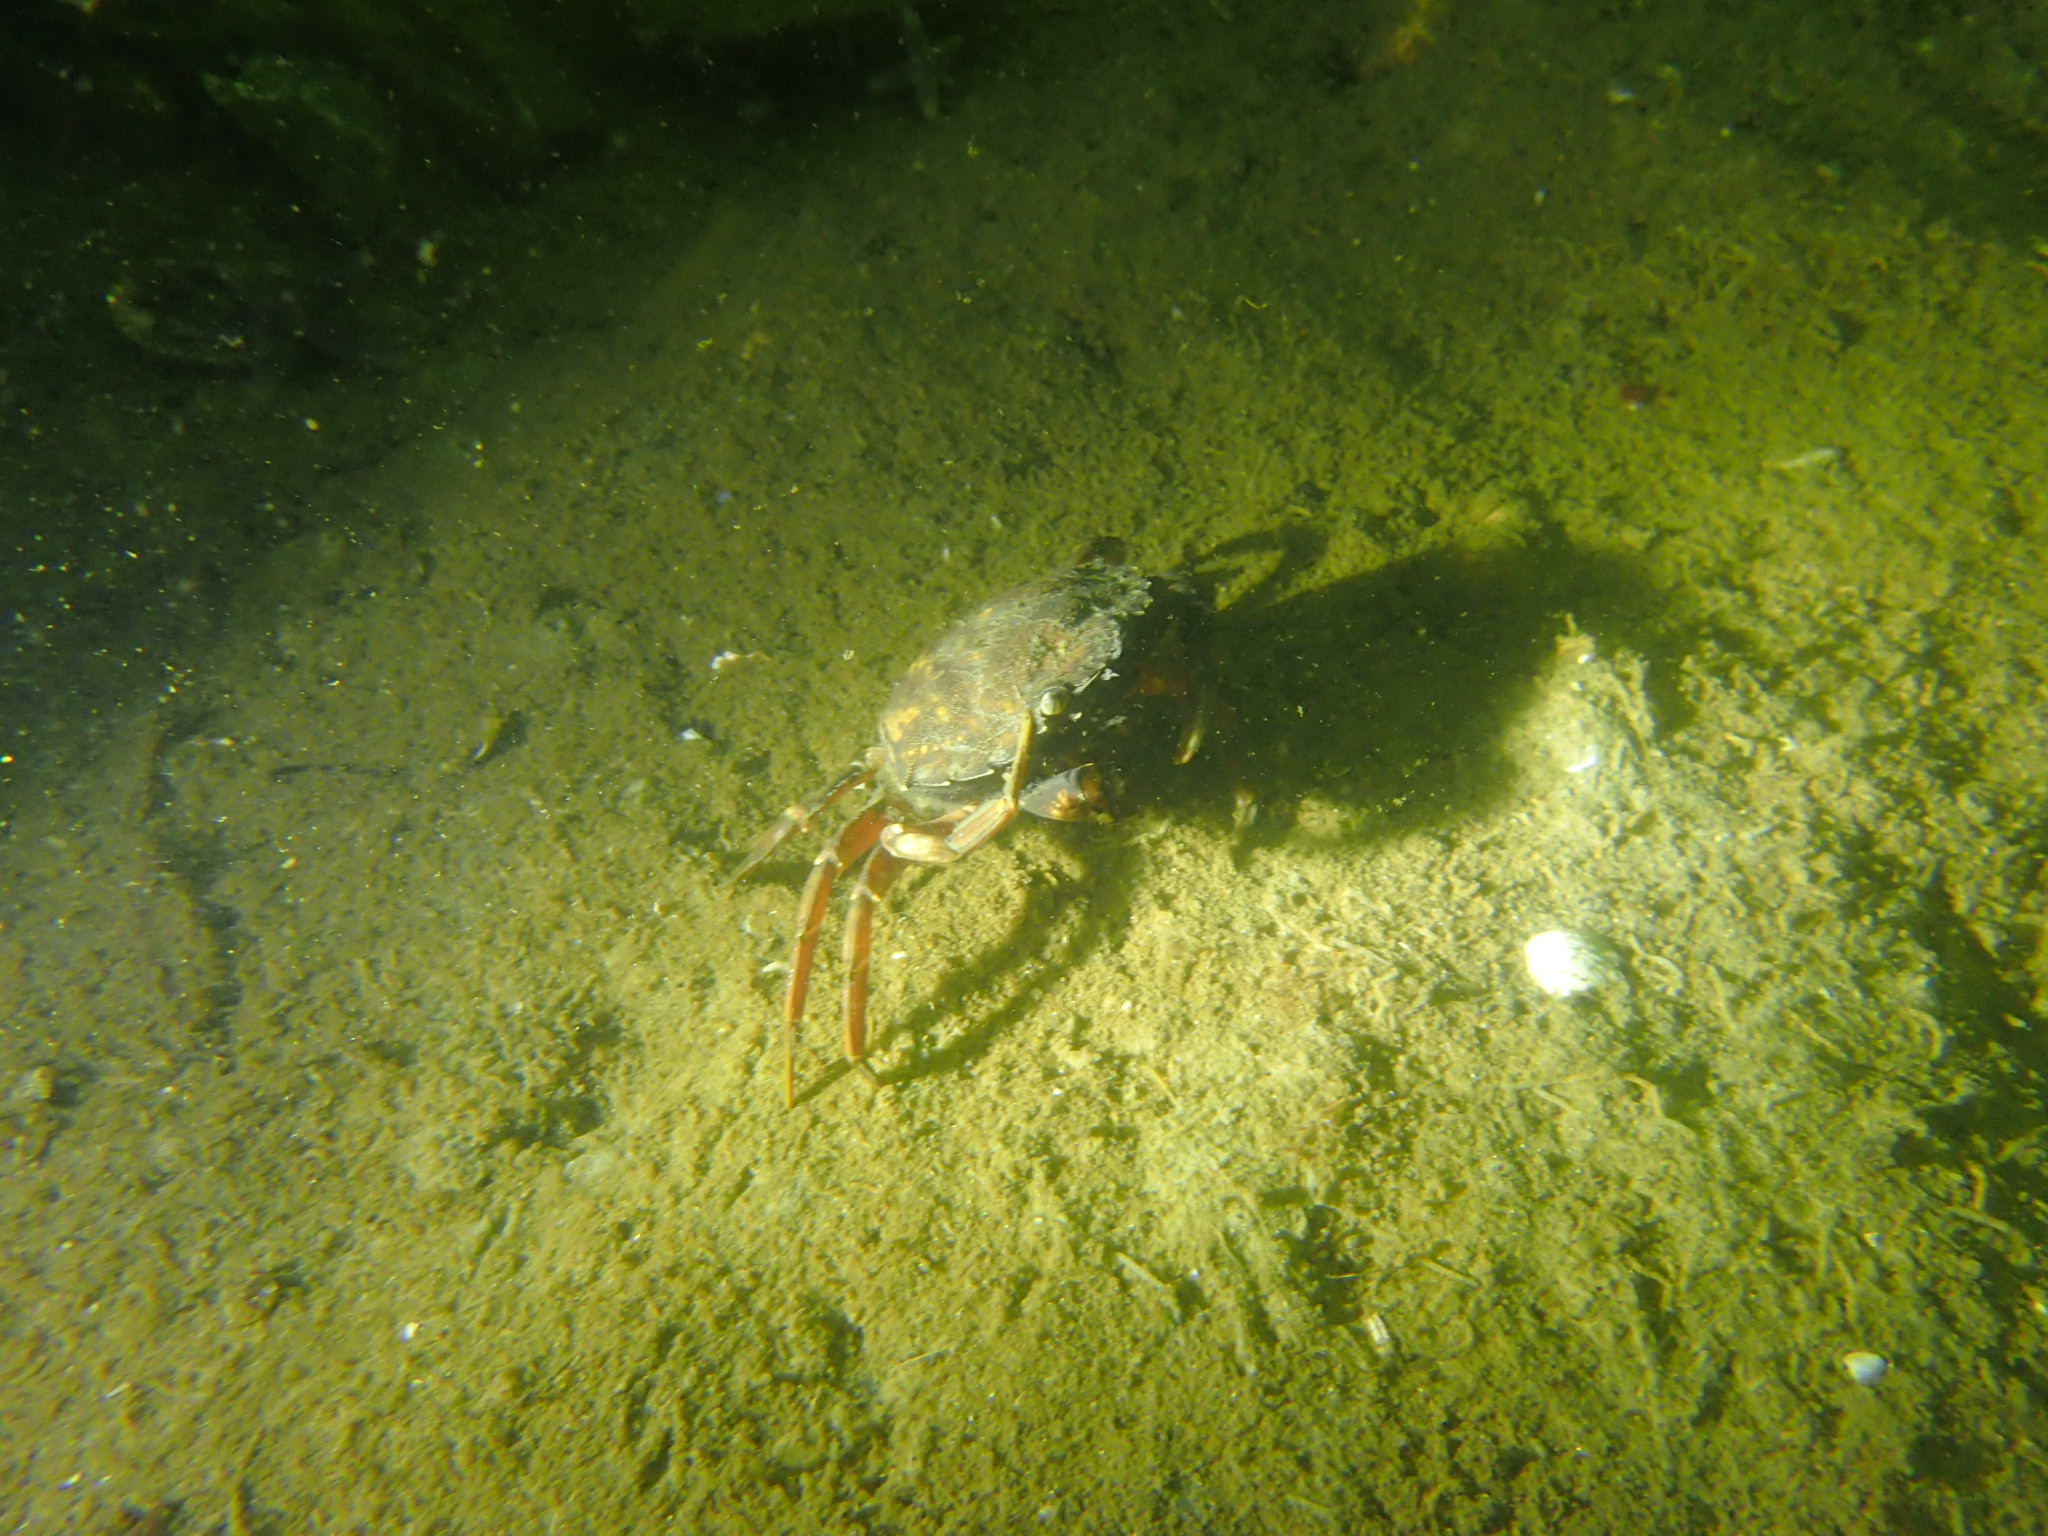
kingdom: Animalia
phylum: Arthropoda
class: Malacostraca
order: Decapoda
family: Carcinidae
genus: Carcinus
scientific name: Carcinus maenas
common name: European green crab
